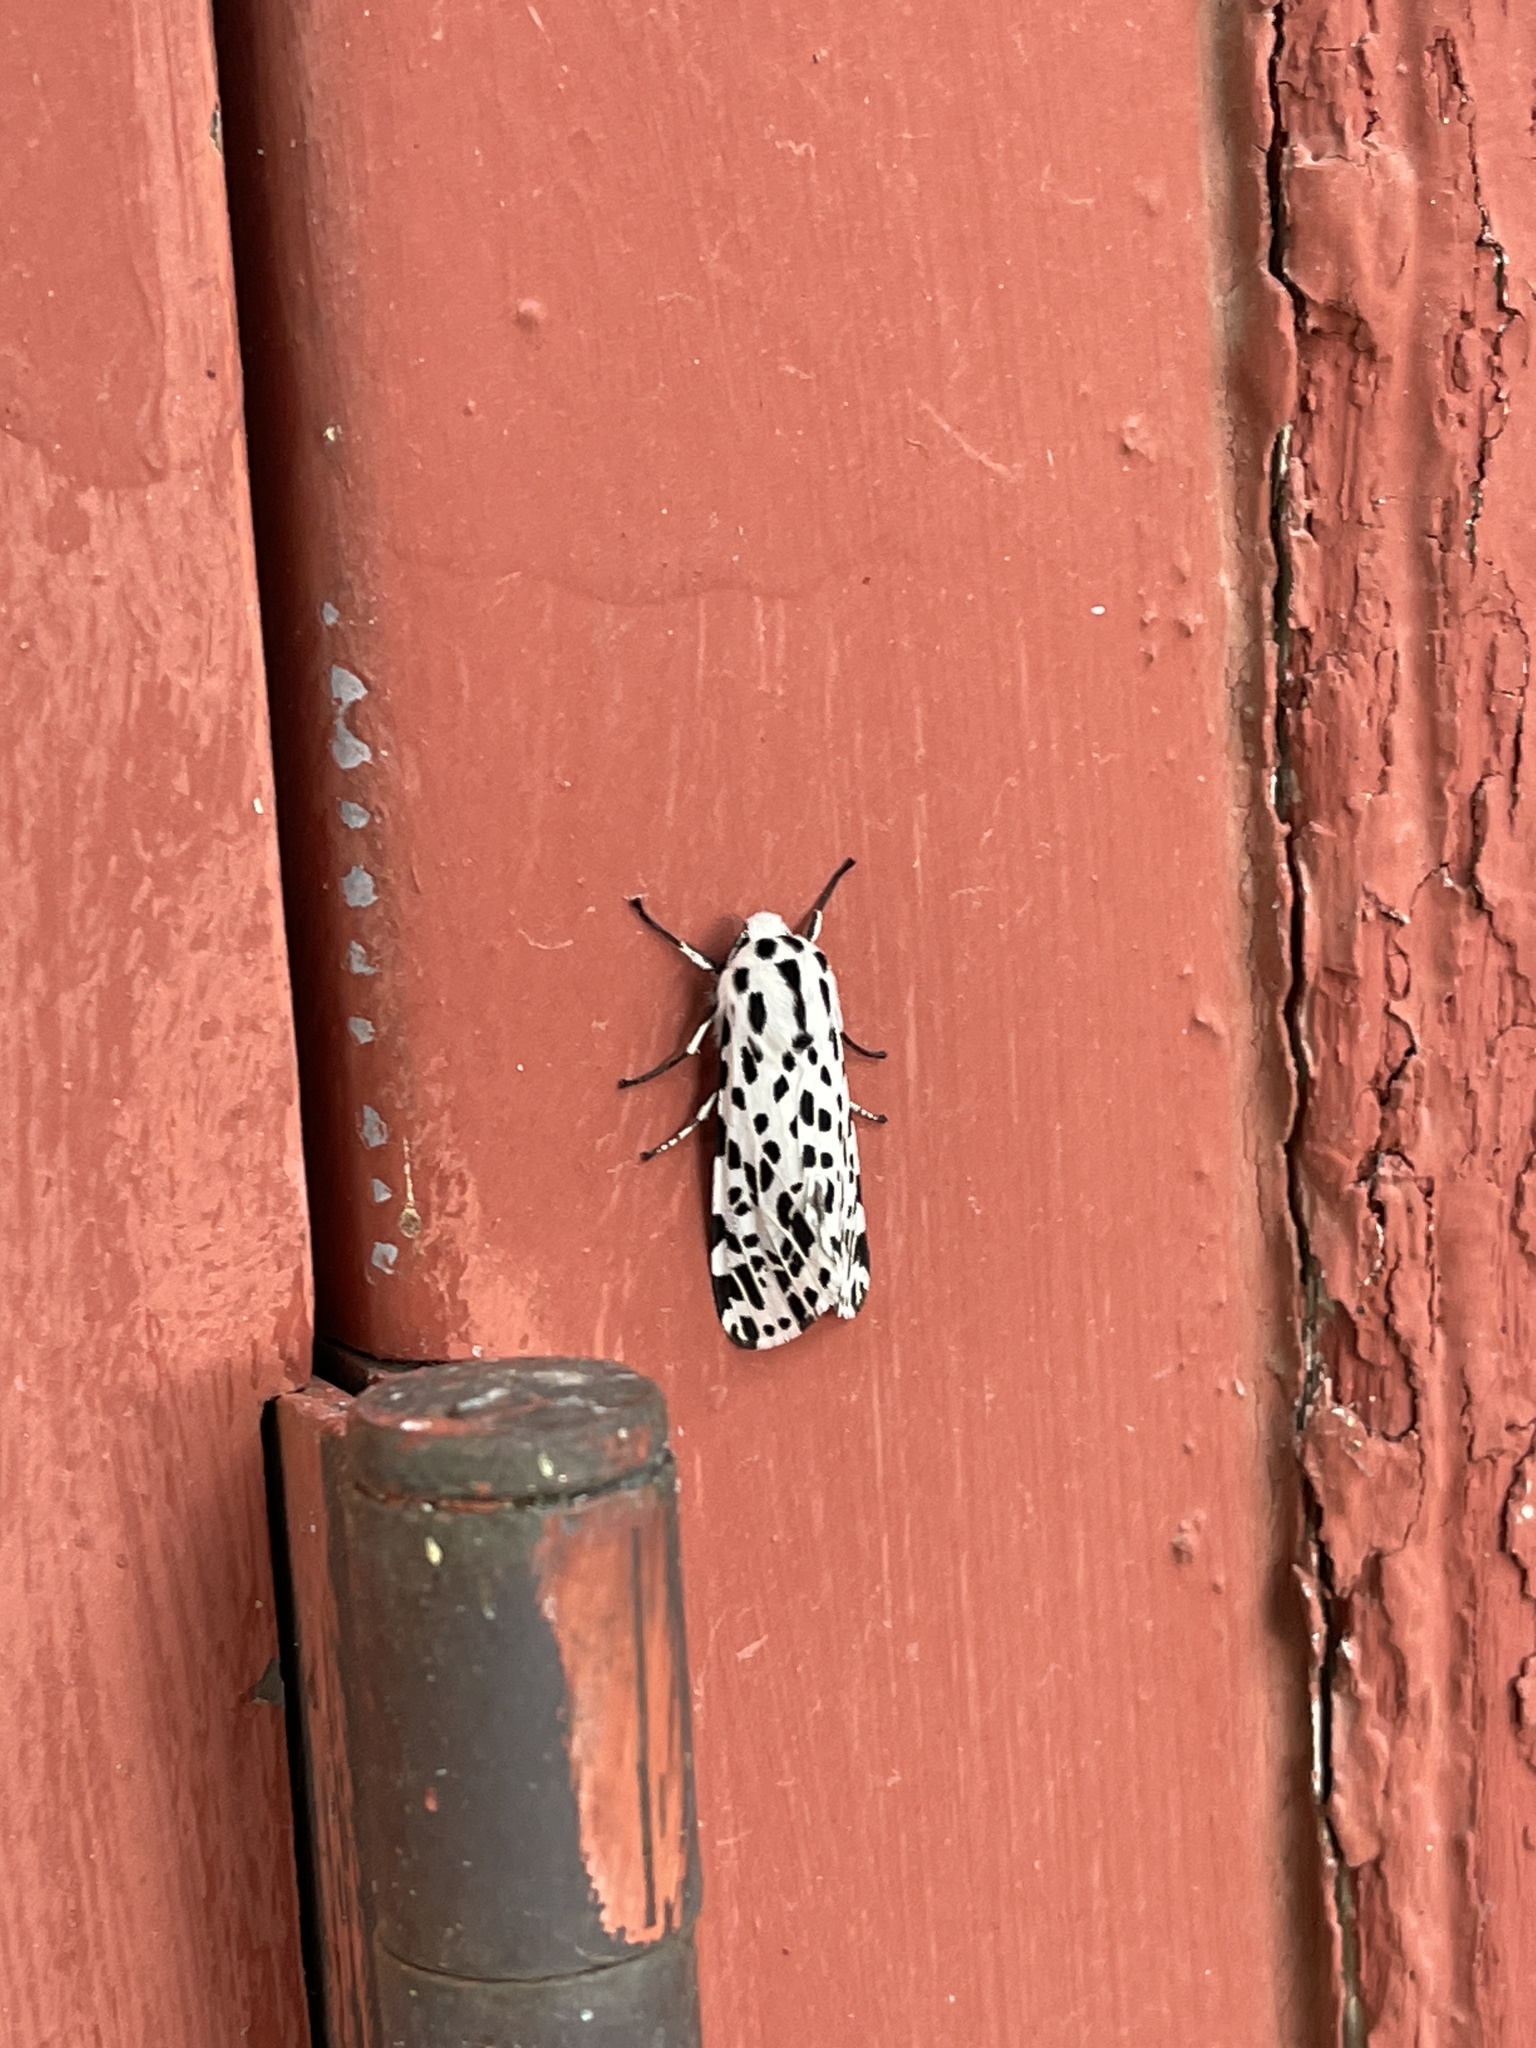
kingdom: Animalia
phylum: Arthropoda
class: Insecta
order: Lepidoptera
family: Erebidae
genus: Hypercompe
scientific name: Hypercompe permaculata
